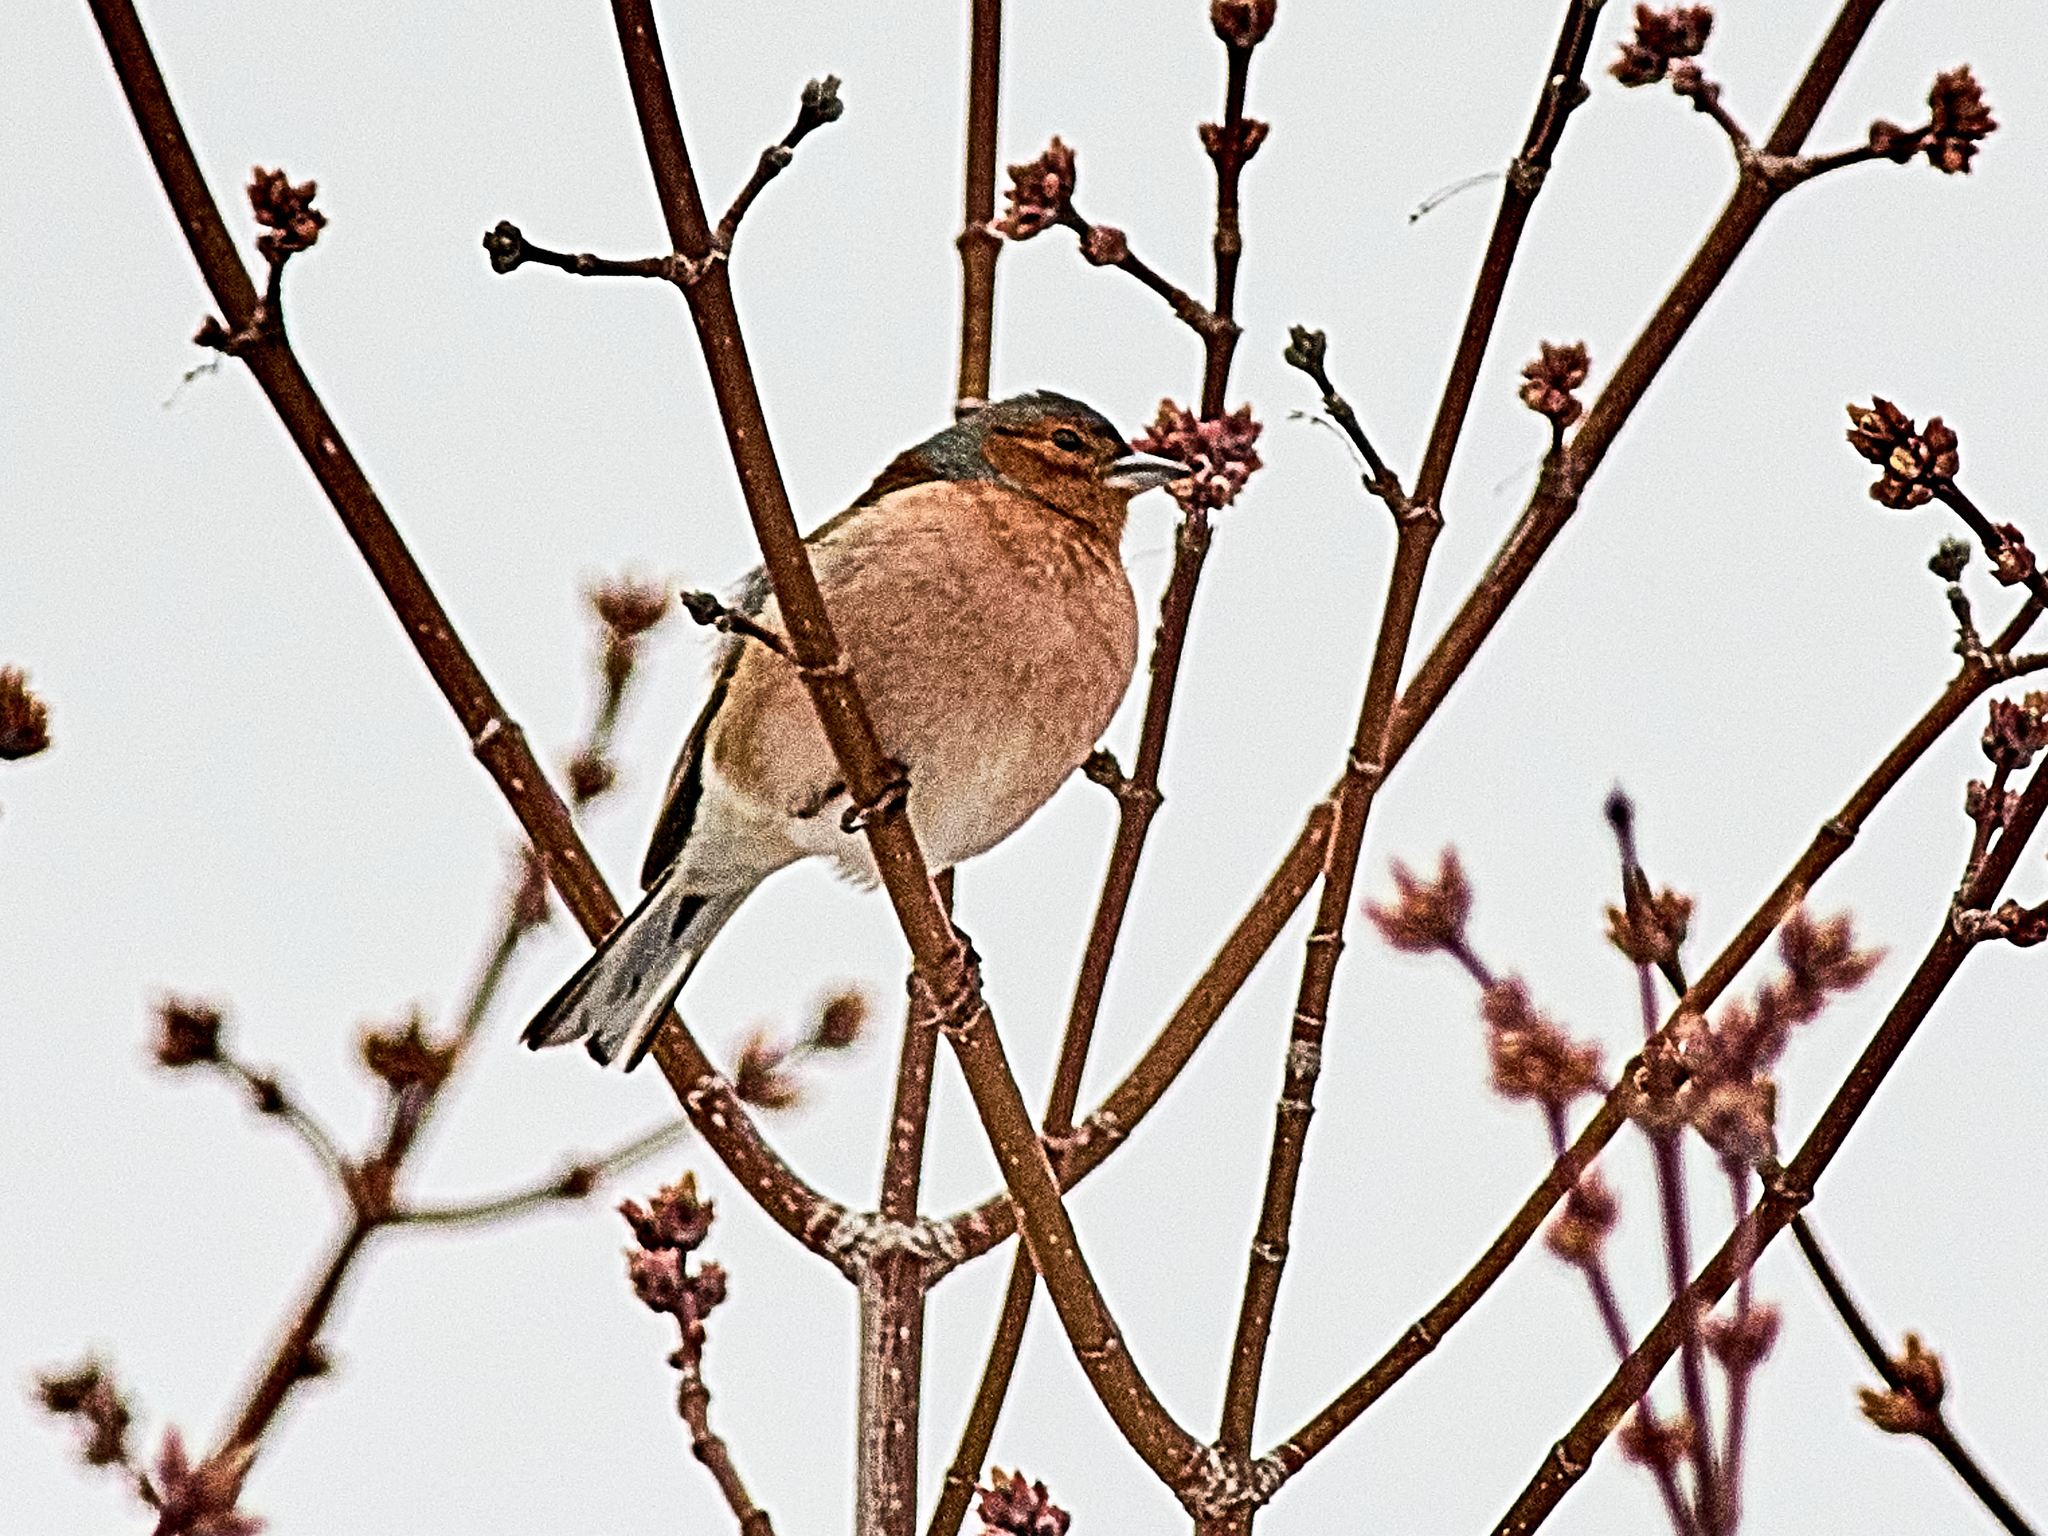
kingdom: Animalia
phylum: Chordata
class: Aves
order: Passeriformes
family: Fringillidae
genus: Fringilla
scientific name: Fringilla coelebs
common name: Common chaffinch
